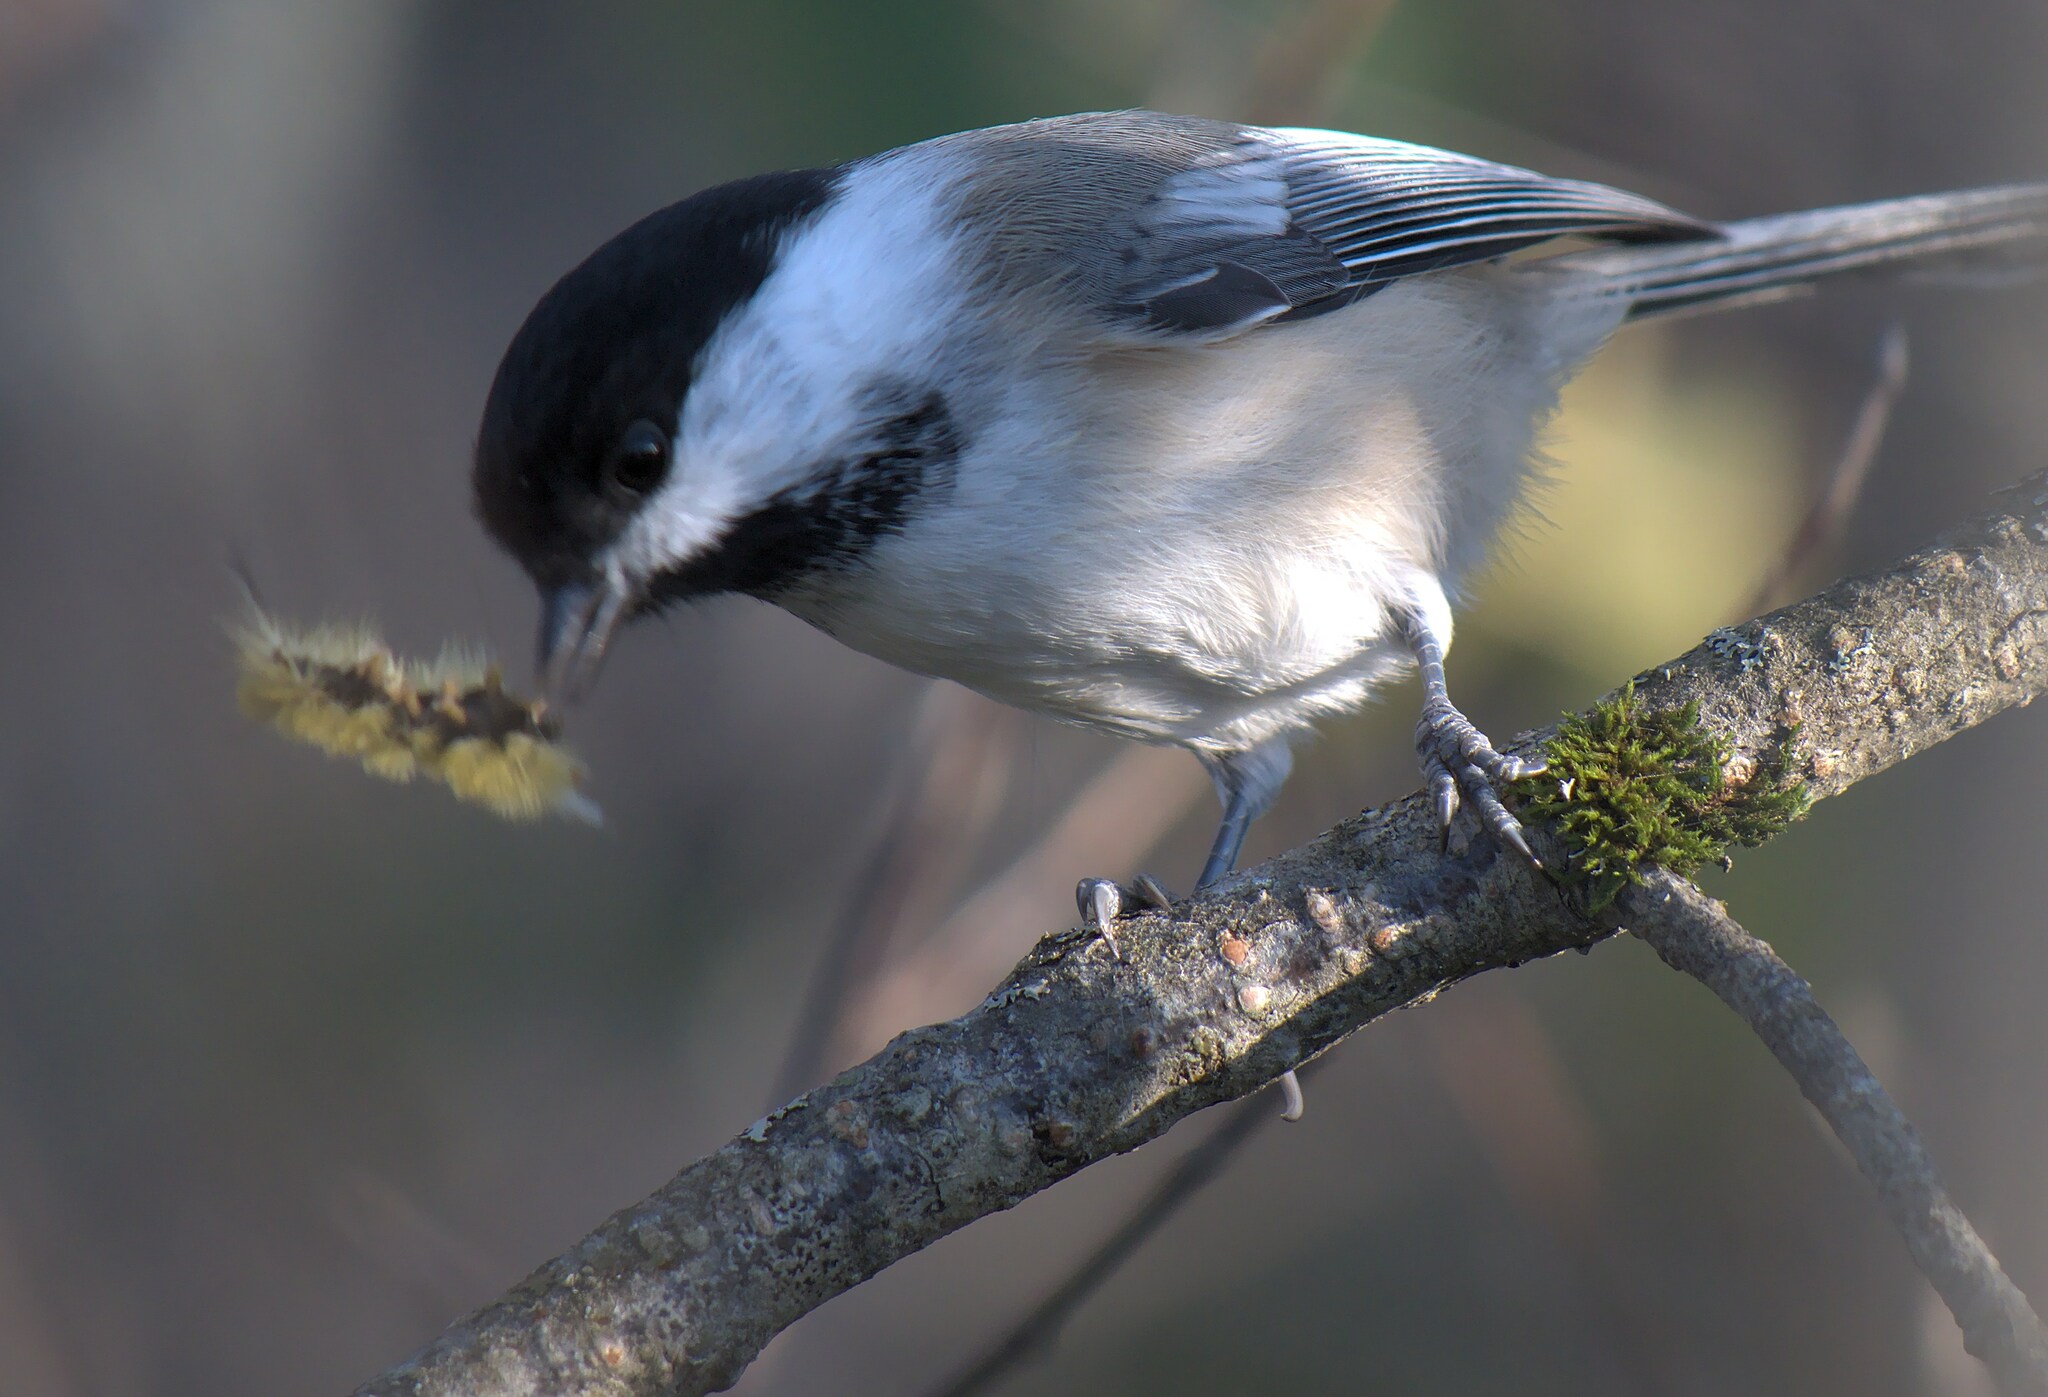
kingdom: Animalia
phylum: Chordata
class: Aves
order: Passeriformes
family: Paridae
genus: Poecile
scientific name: Poecile atricapillus
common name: Black-capped chickadee
